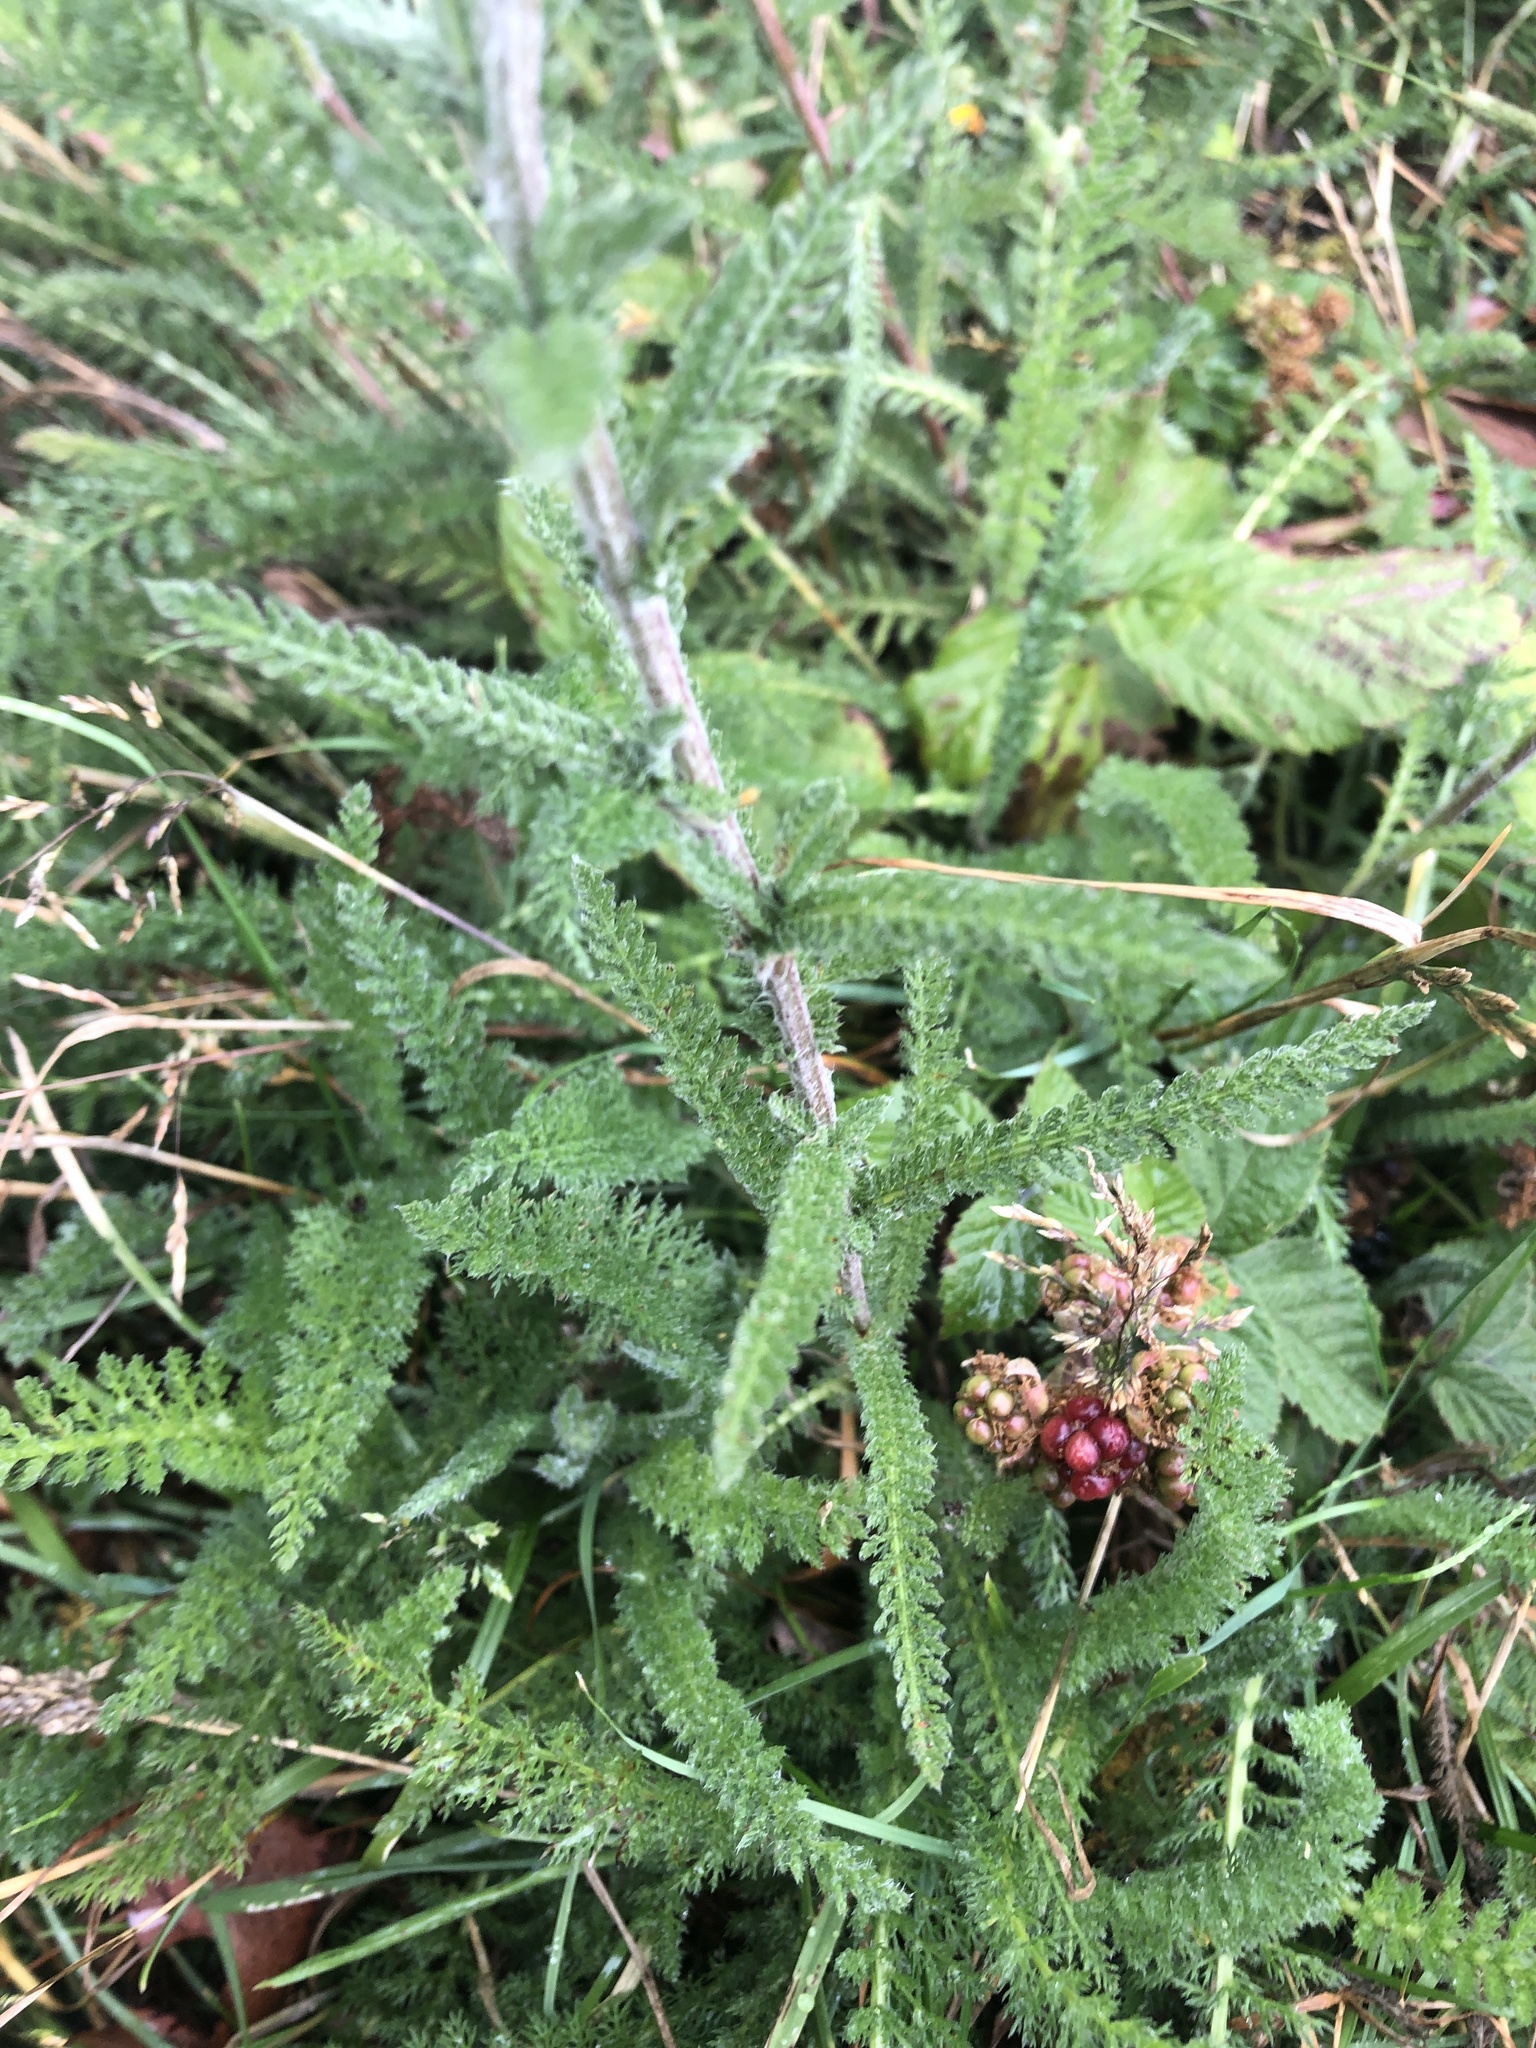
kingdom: Plantae
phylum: Tracheophyta
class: Magnoliopsida
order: Asterales
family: Asteraceae
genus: Achillea
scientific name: Achillea millefolium
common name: Yarrow
